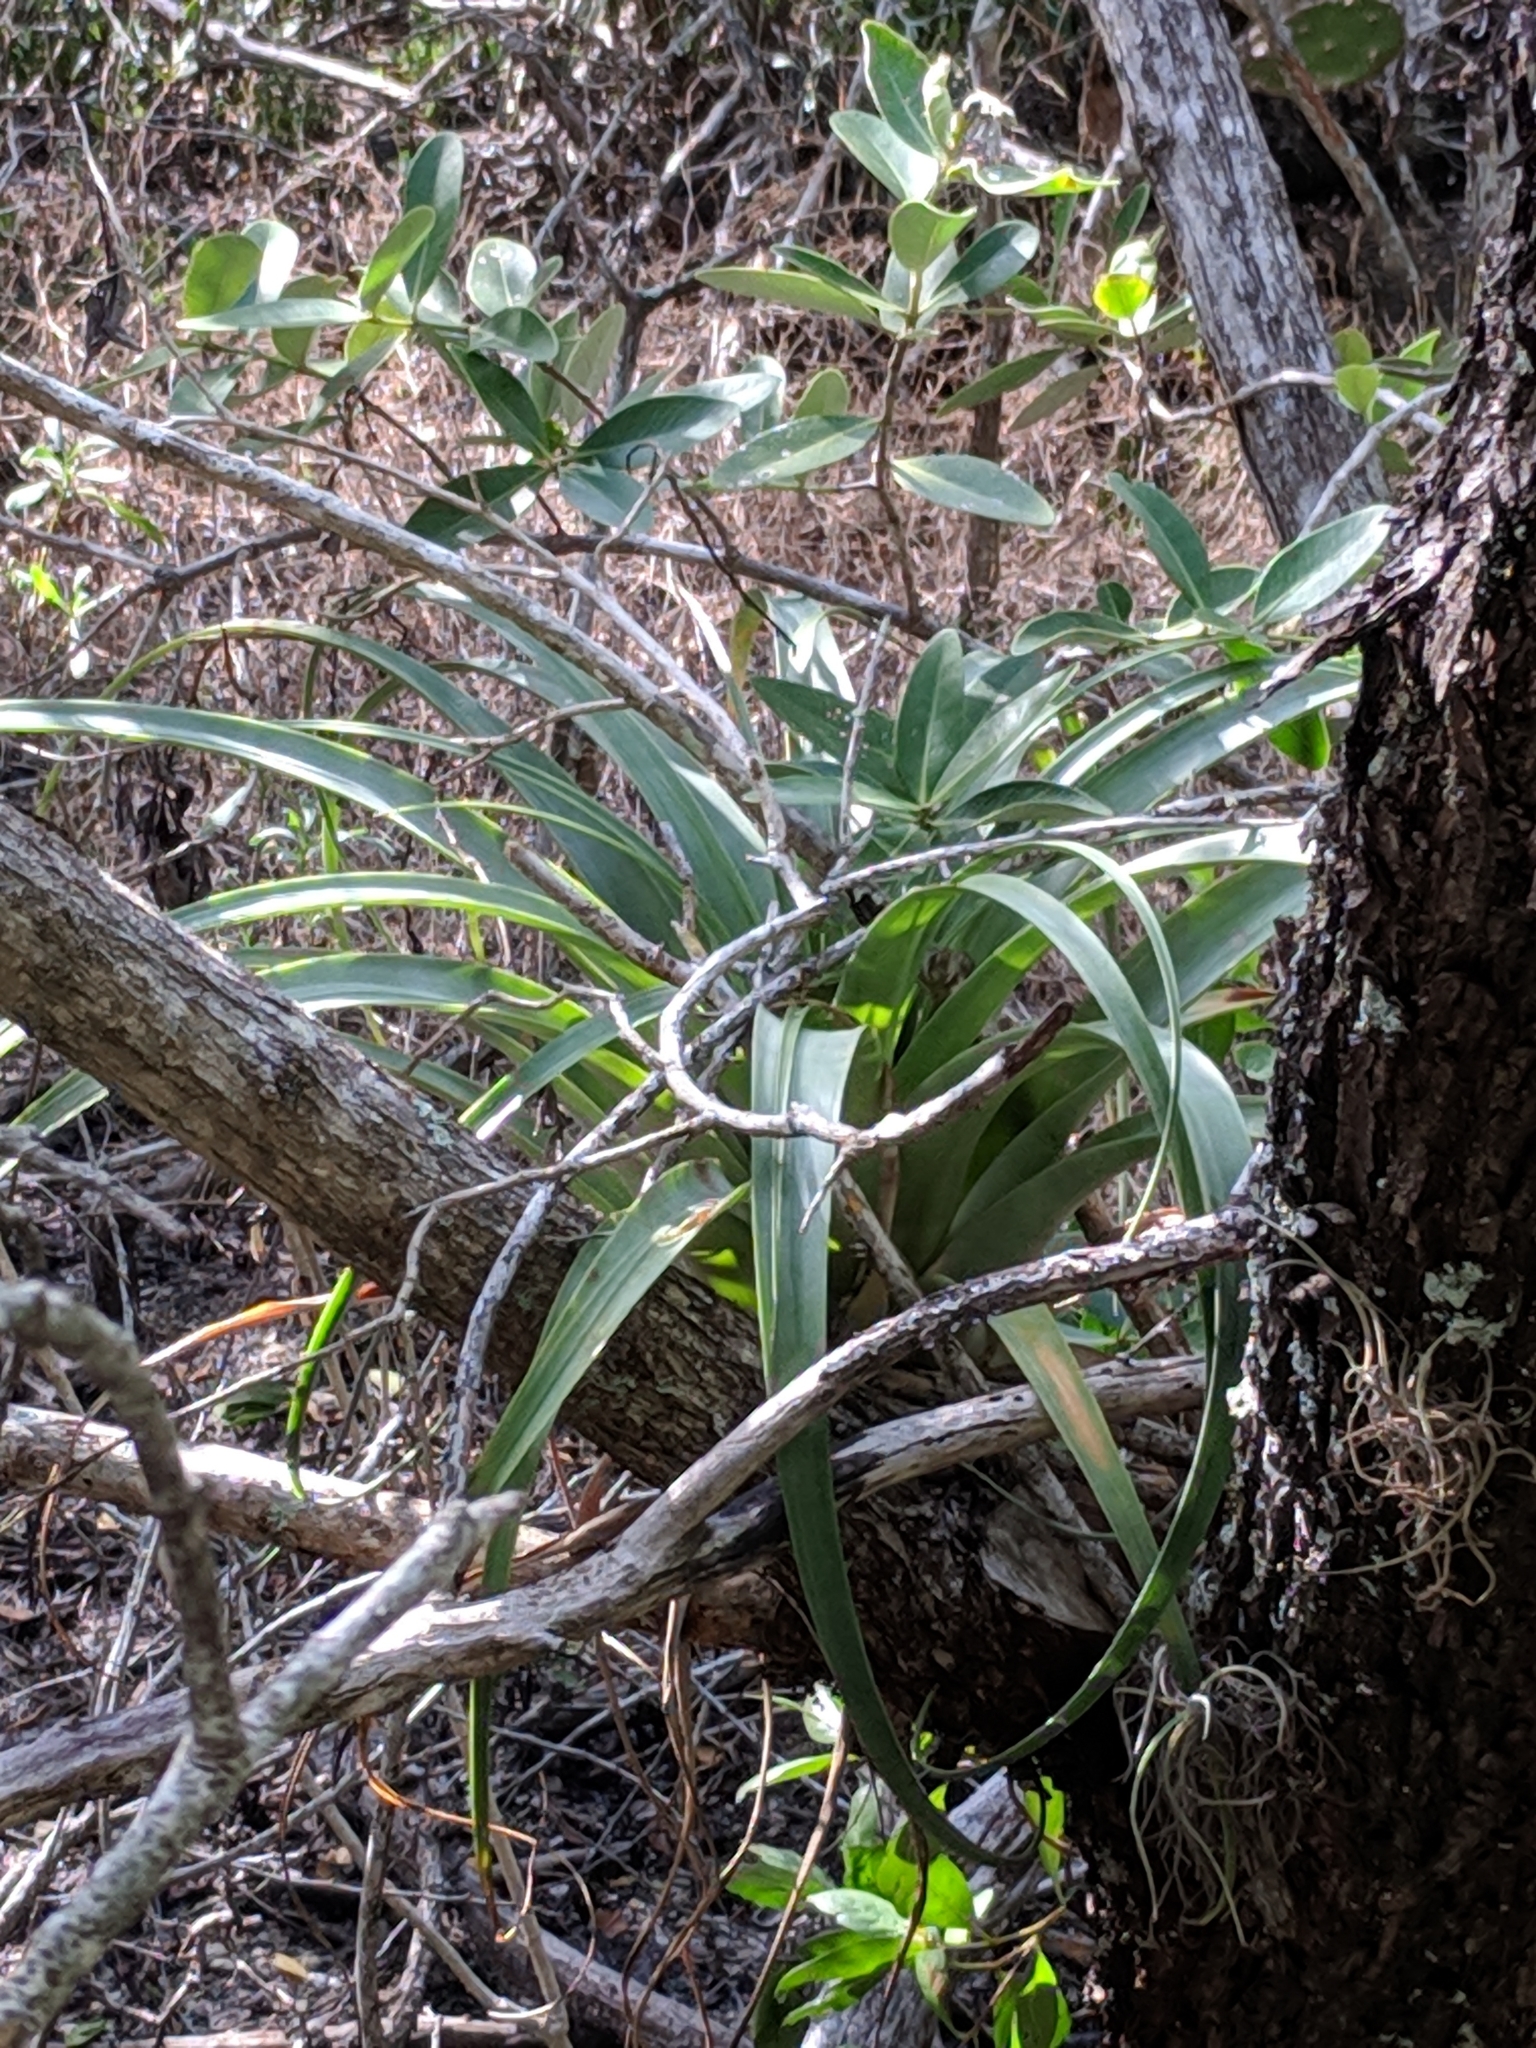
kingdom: Plantae
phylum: Tracheophyta
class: Liliopsida
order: Poales
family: Bromeliaceae
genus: Tillandsia
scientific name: Tillandsia utriculata
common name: Wild pine
